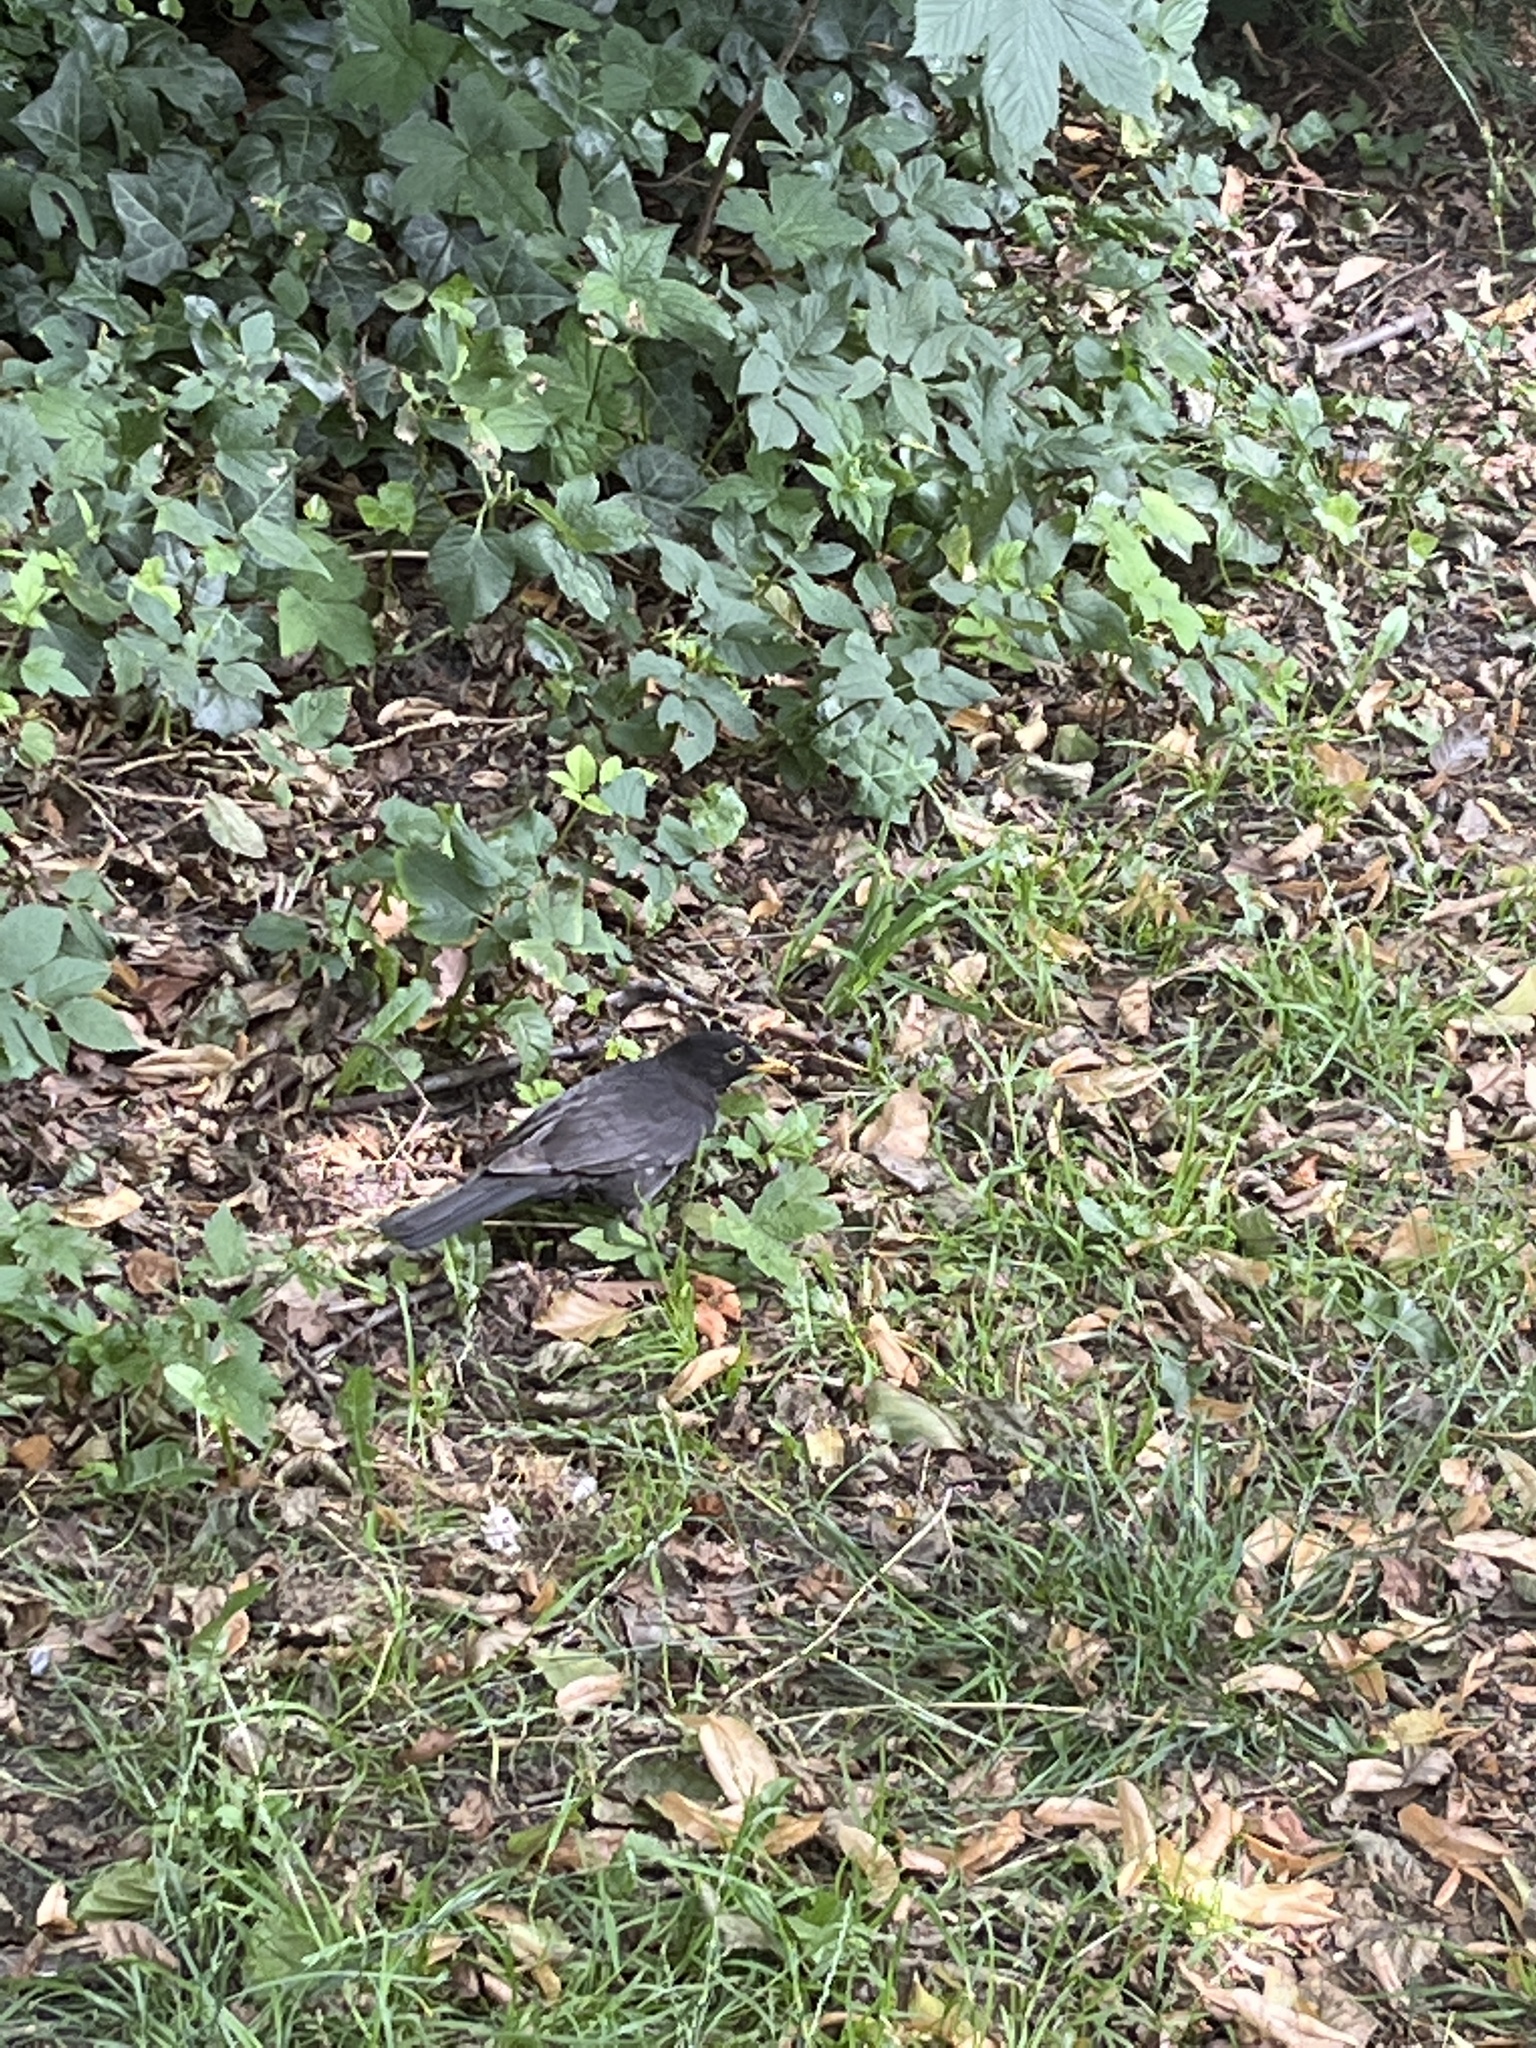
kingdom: Animalia
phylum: Chordata
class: Aves
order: Passeriformes
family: Turdidae
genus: Turdus
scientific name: Turdus merula
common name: Common blackbird
